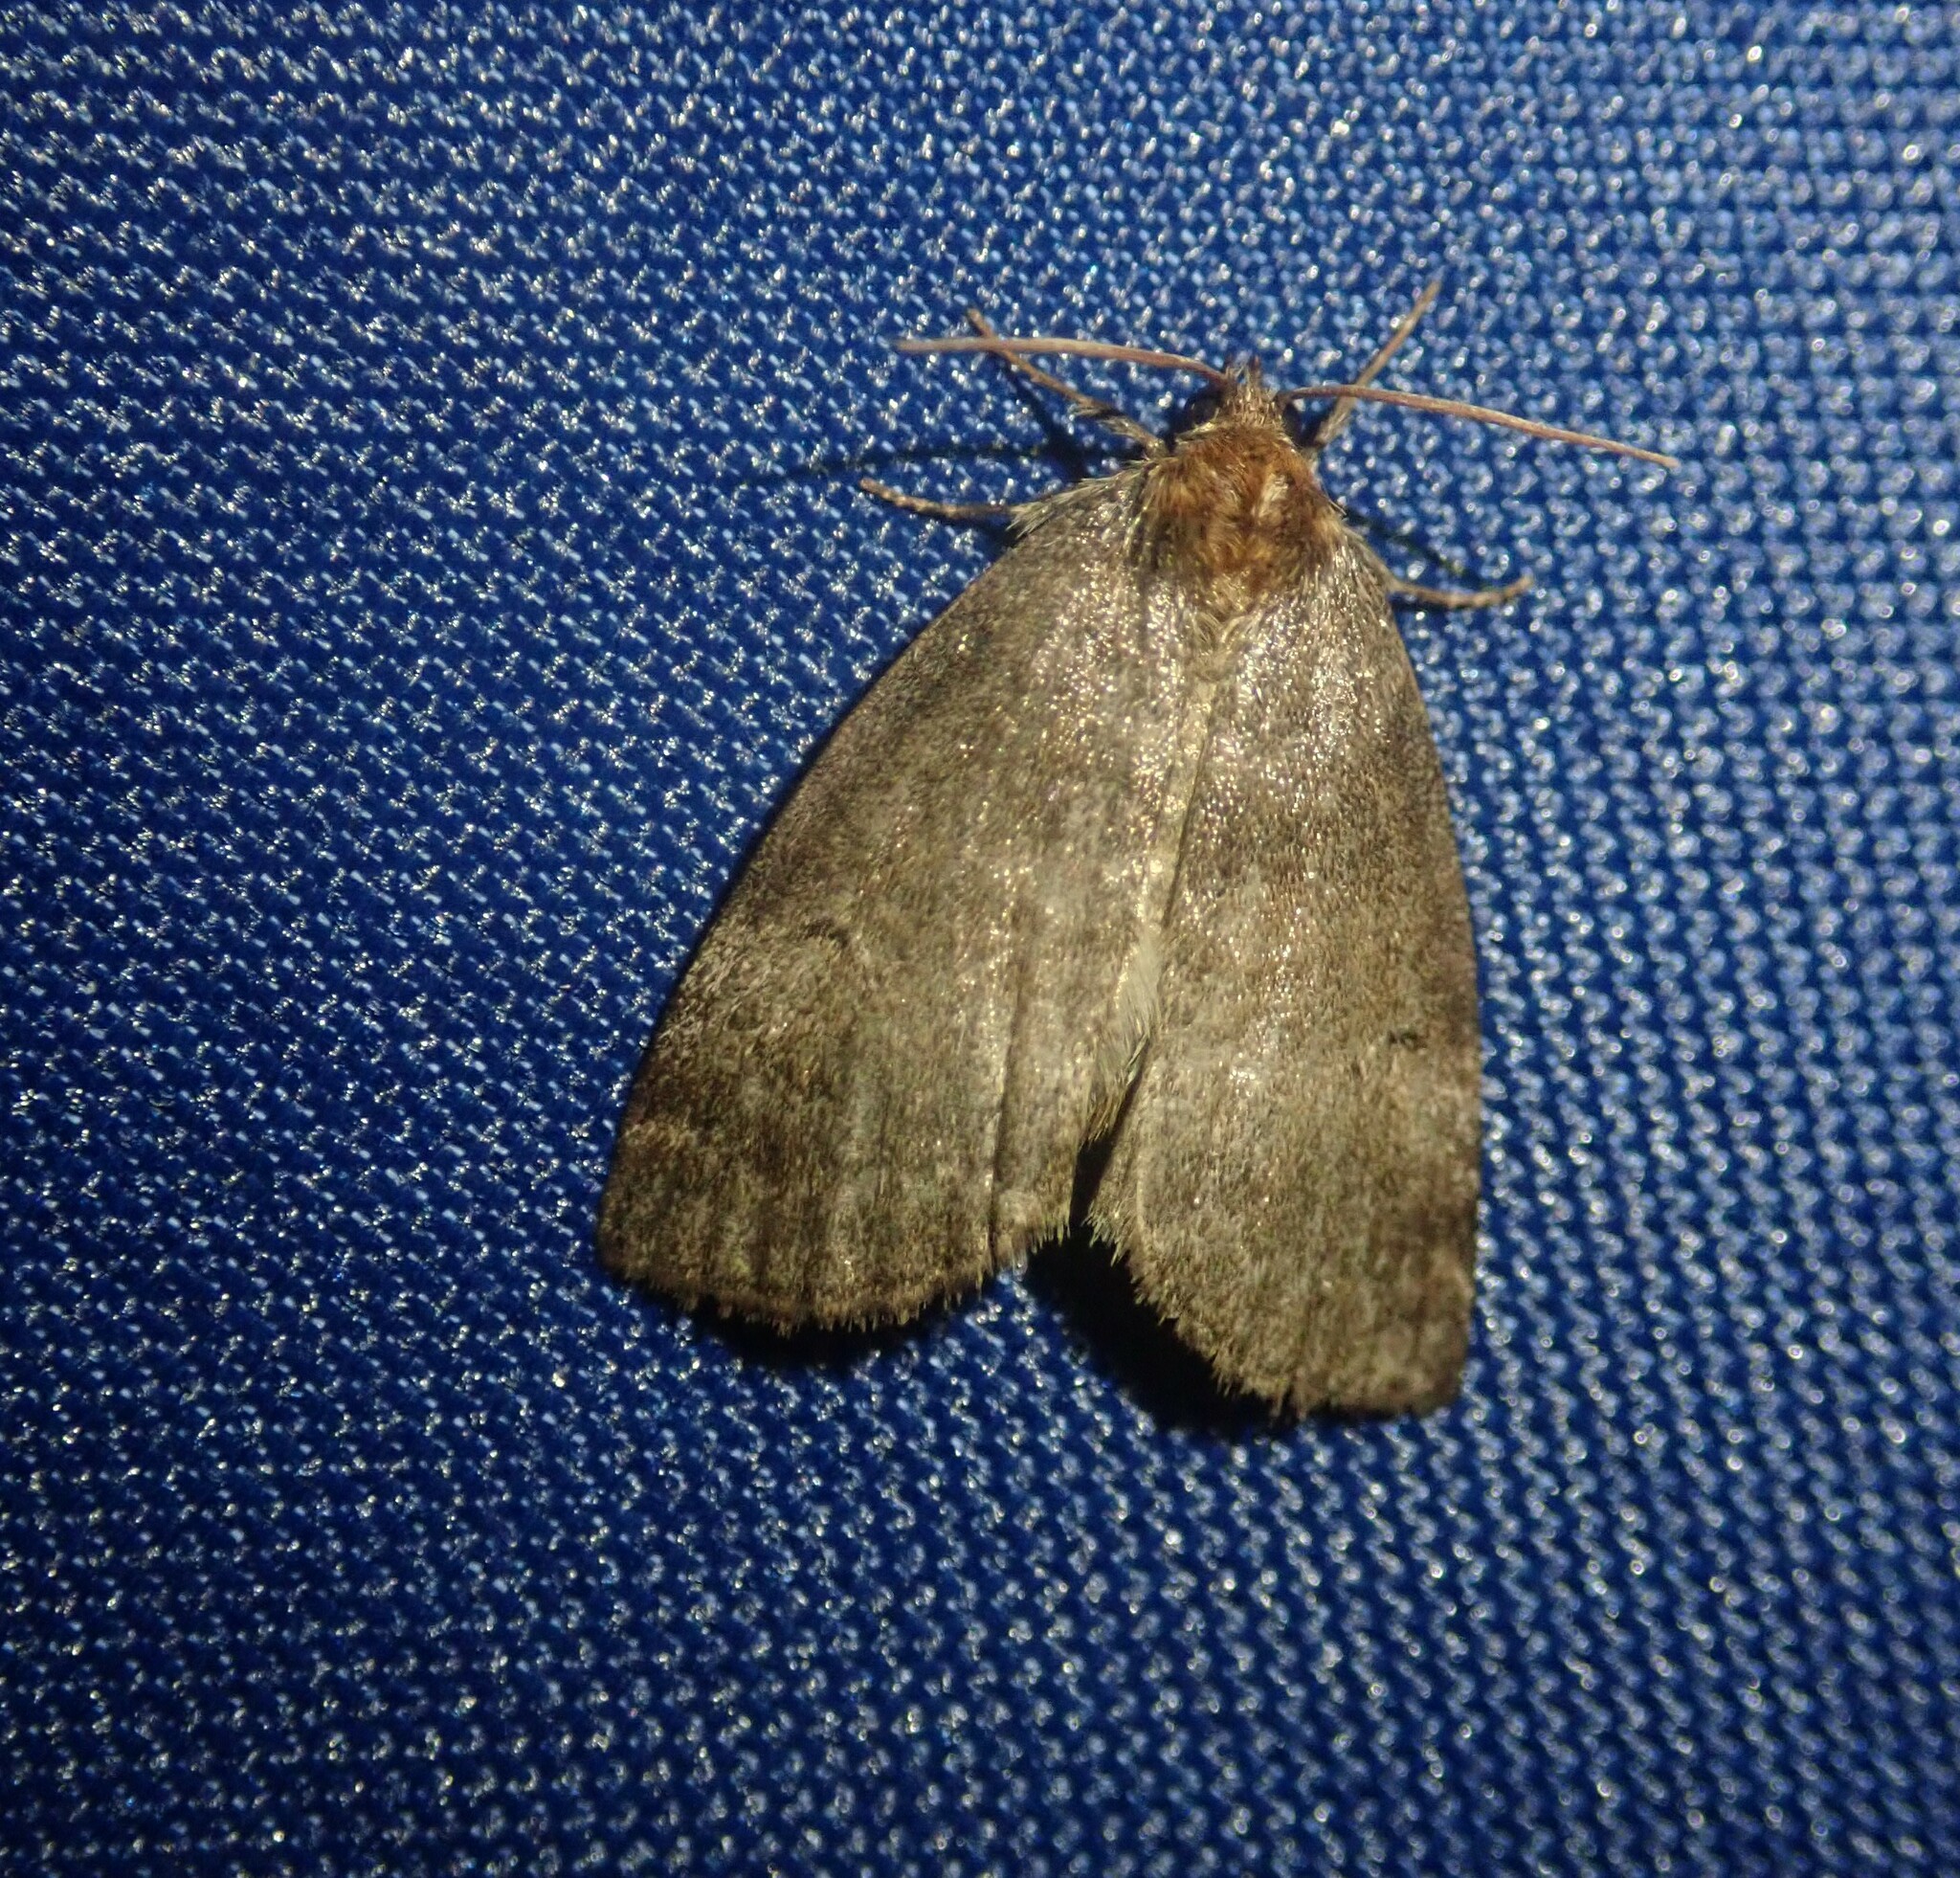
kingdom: Animalia
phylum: Arthropoda
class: Insecta
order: Lepidoptera
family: Drepanidae
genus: Ochropacha
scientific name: Ochropacha duplaris
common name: Common lutestring
